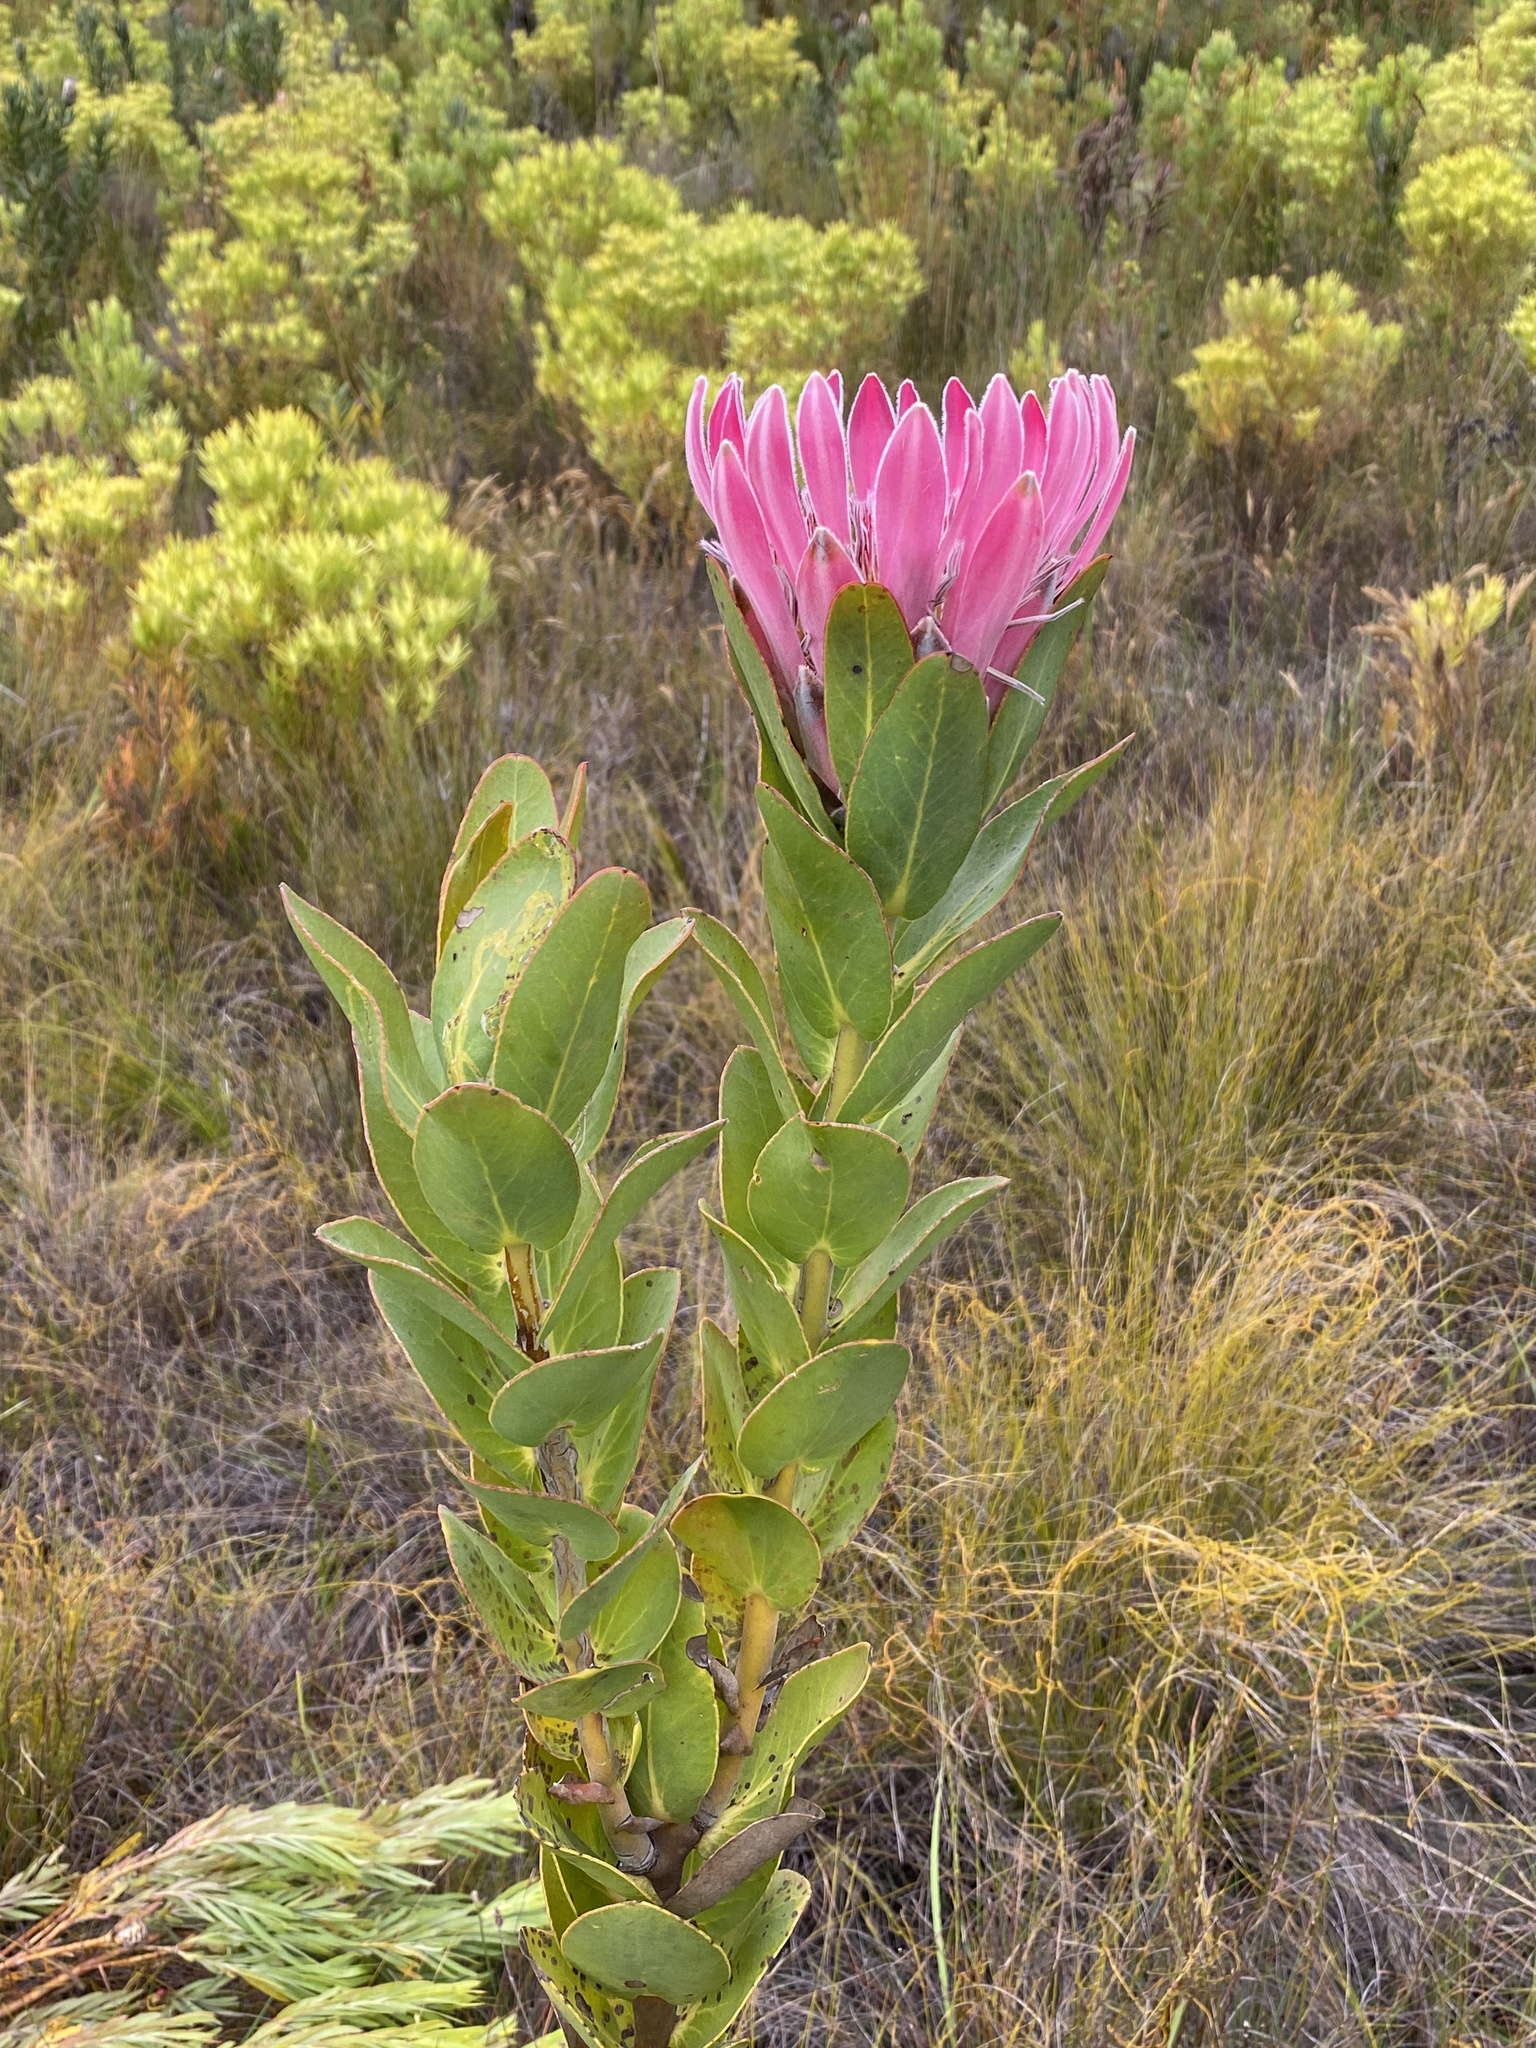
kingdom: Plantae
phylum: Tracheophyta
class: Magnoliopsida
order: Proteales
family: Proteaceae
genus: Protea
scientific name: Protea compacta
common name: Bot river protea
